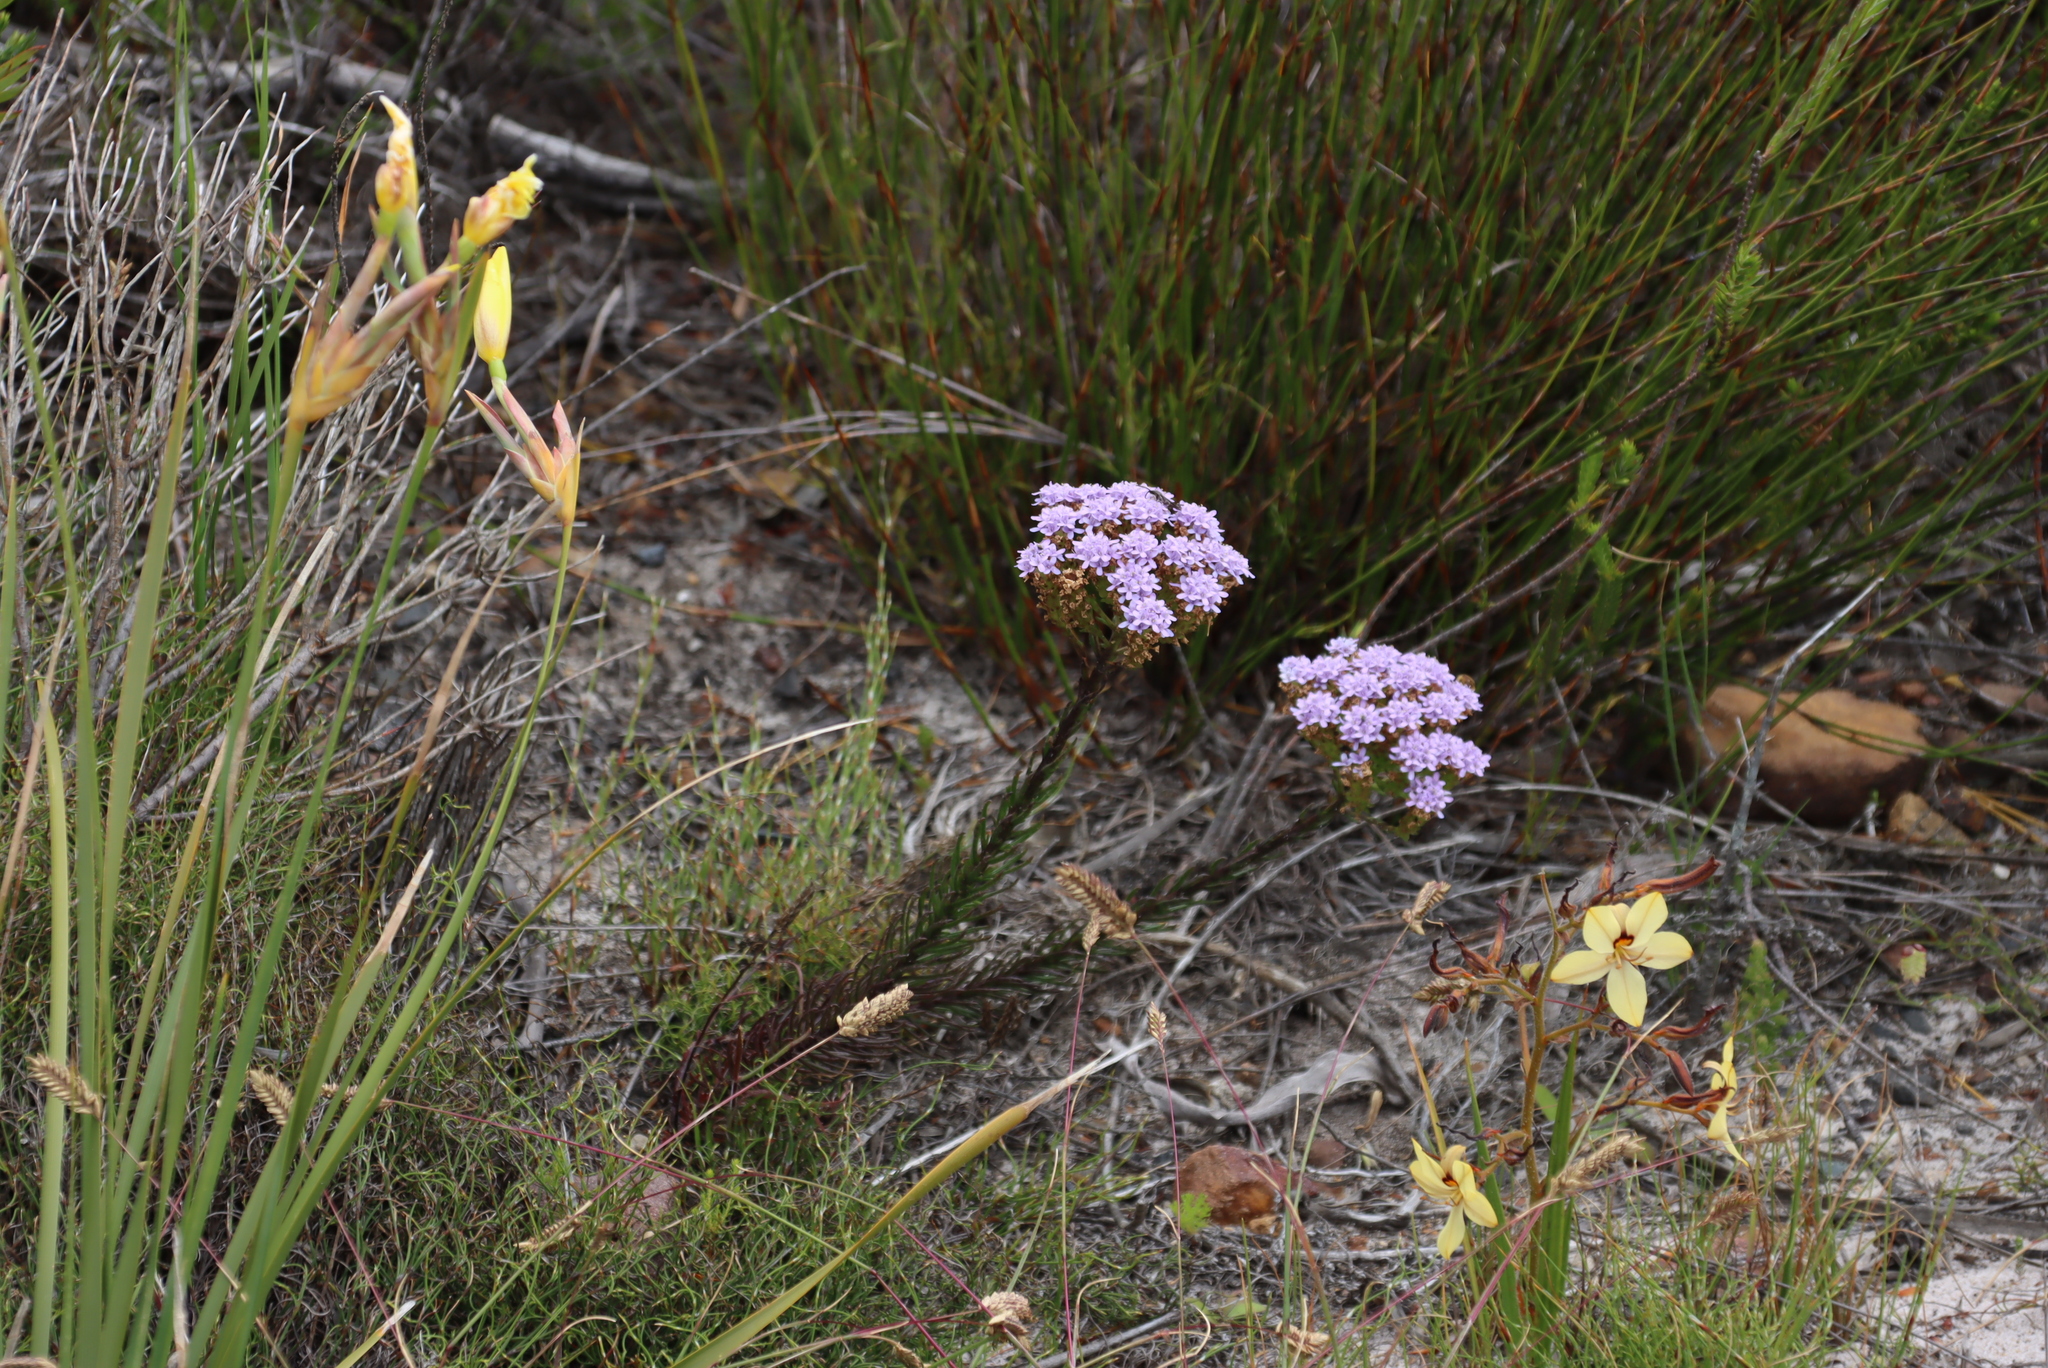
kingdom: Plantae
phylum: Tracheophyta
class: Magnoliopsida
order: Lamiales
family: Scrophulariaceae
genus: Pseudoselago
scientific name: Pseudoselago spuria
